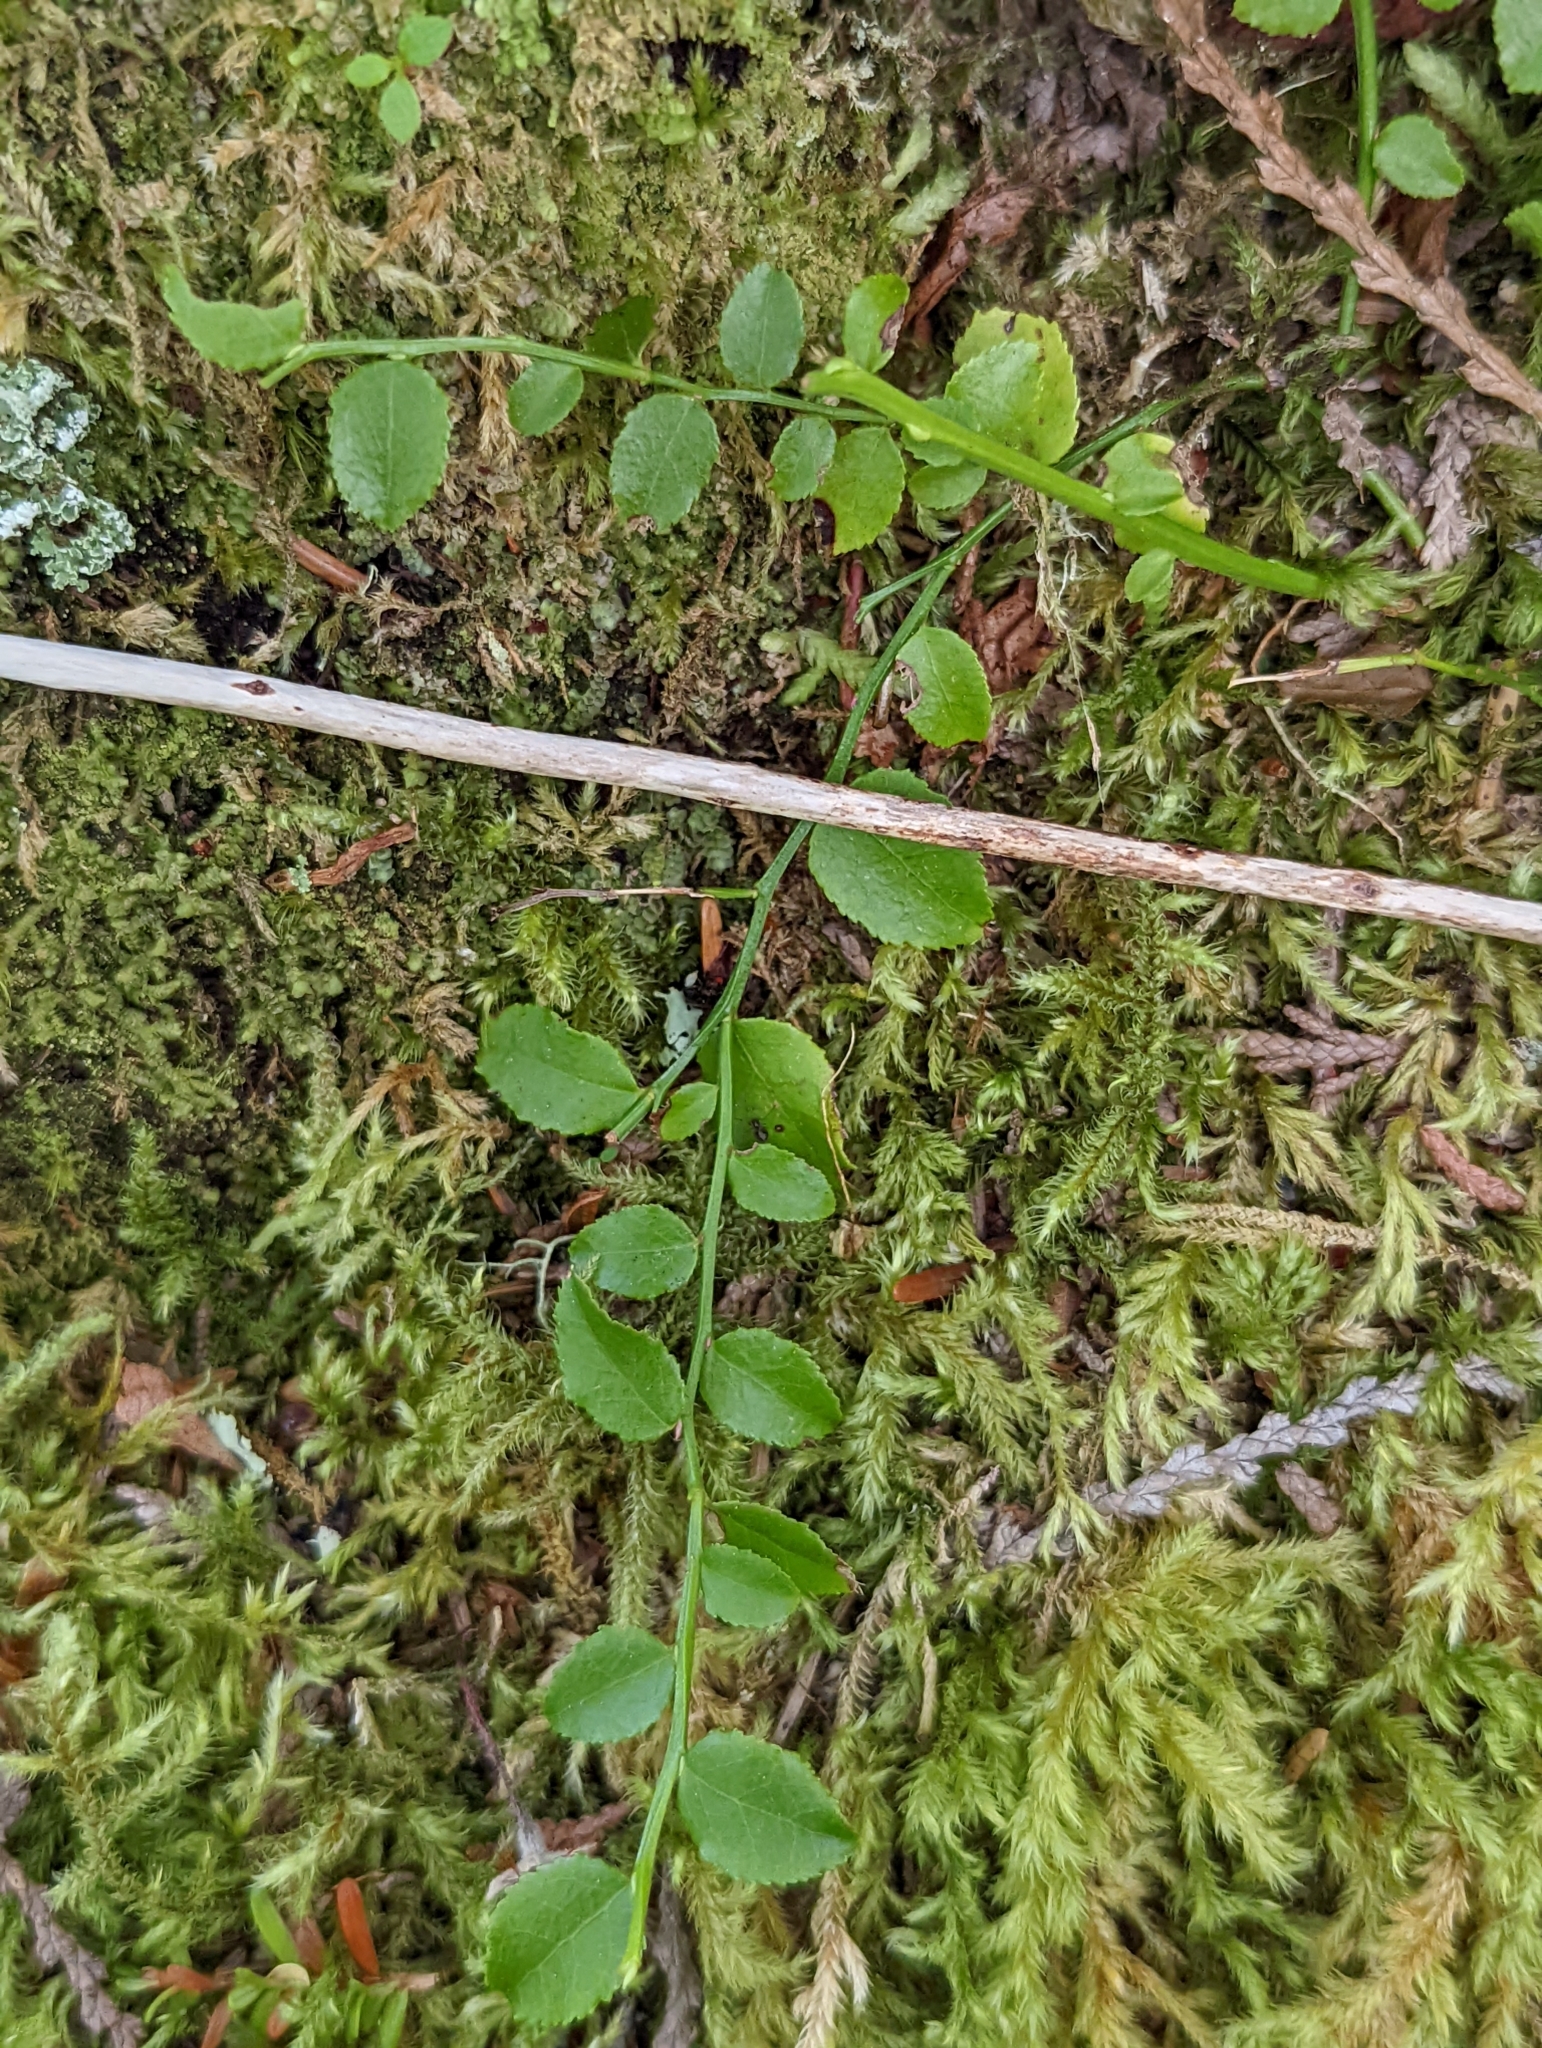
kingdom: Plantae
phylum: Tracheophyta
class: Magnoliopsida
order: Ericales
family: Ericaceae
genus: Vaccinium
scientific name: Vaccinium parvifolium
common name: Red-huckleberry
